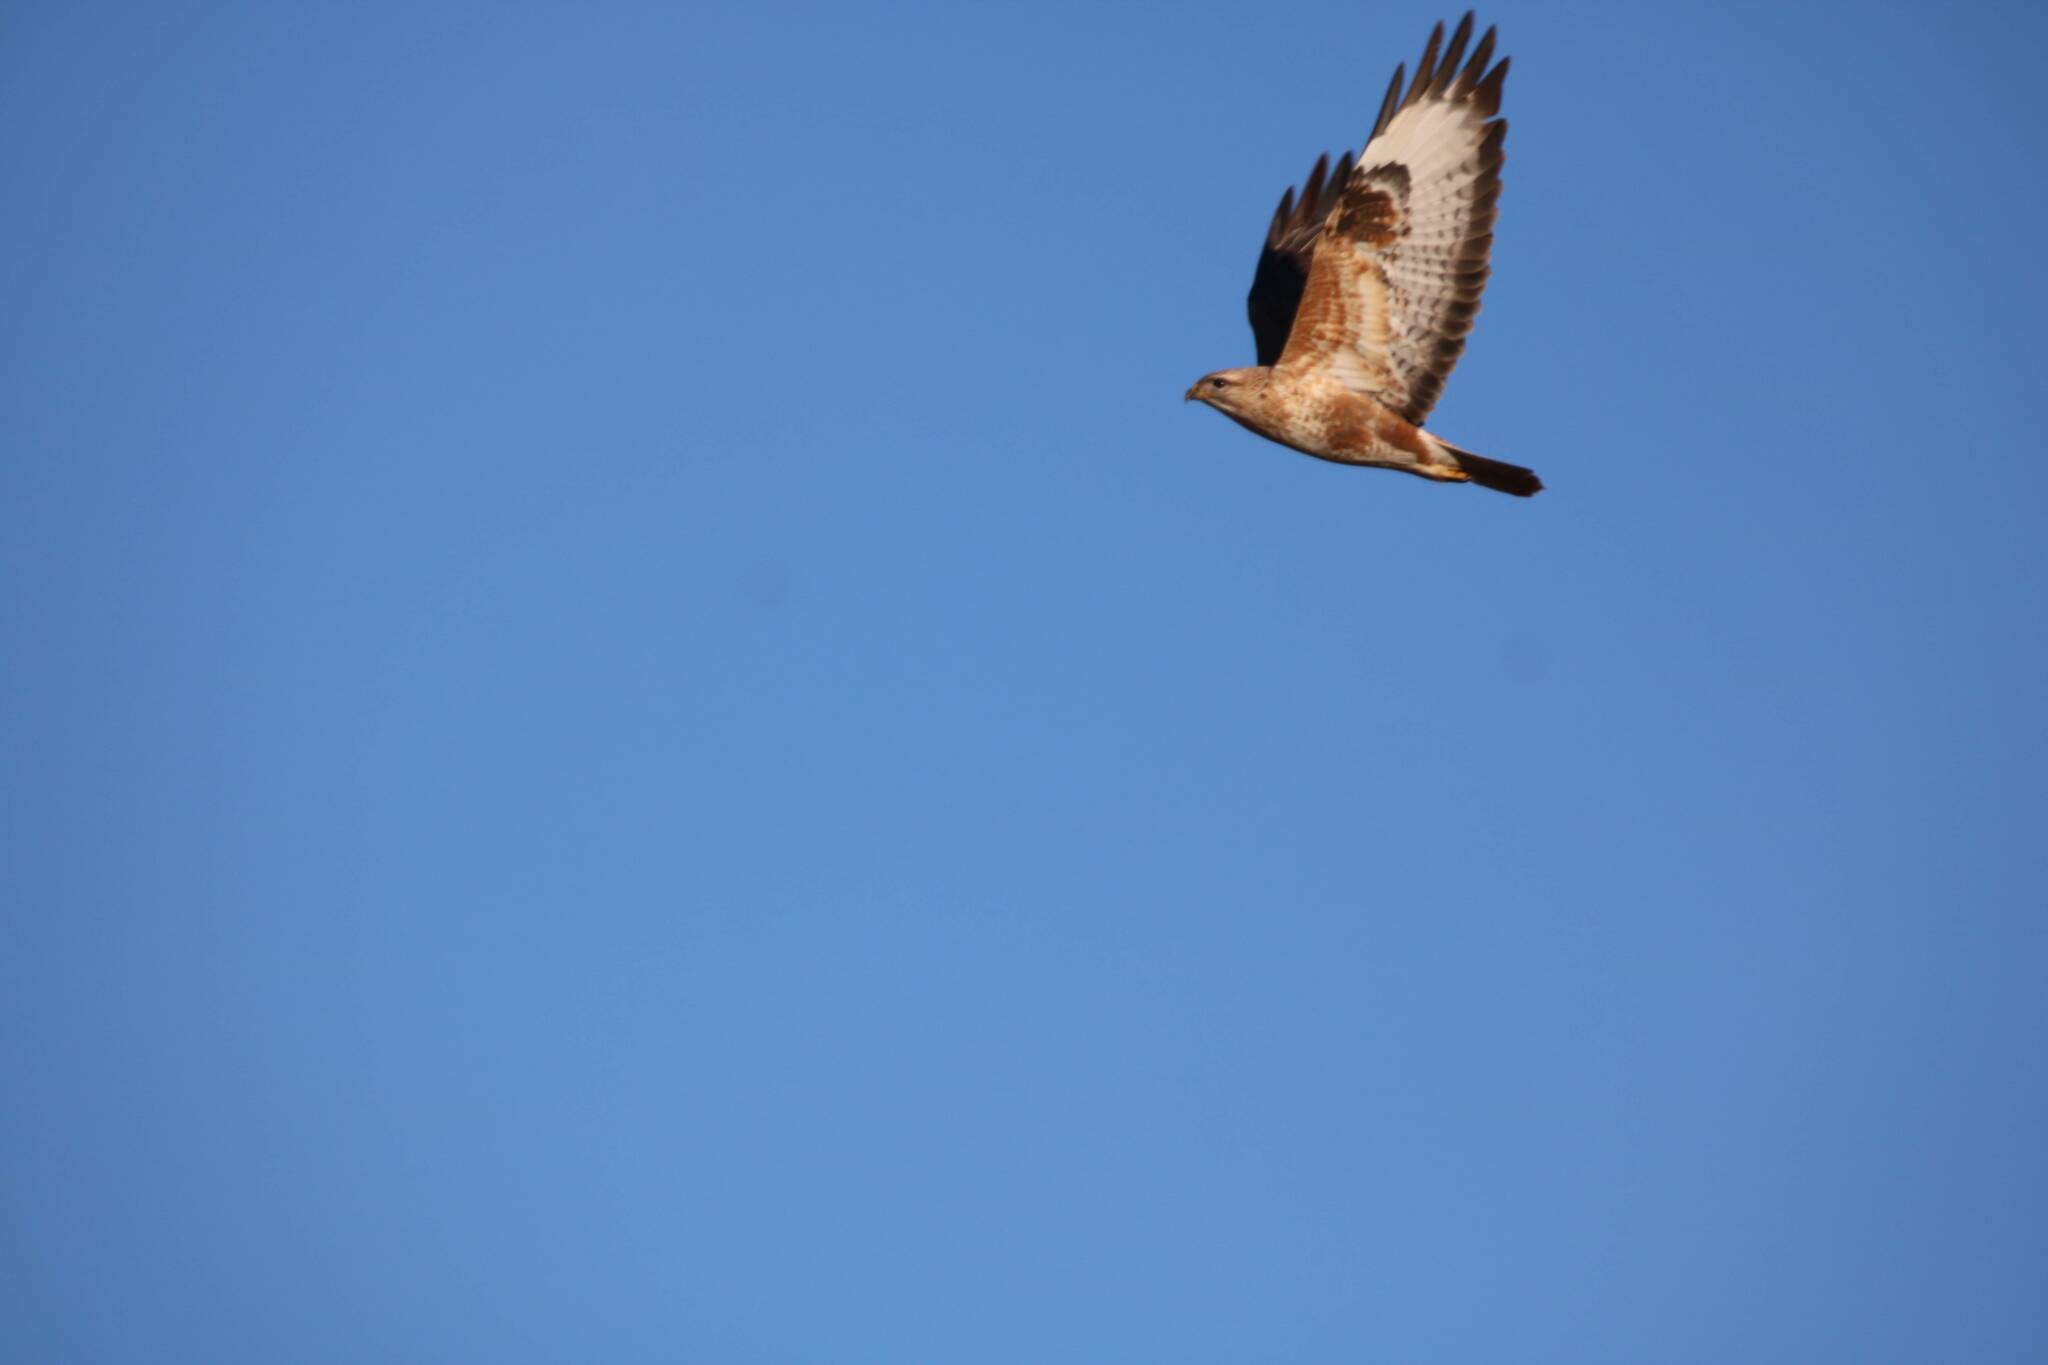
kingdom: Animalia
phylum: Chordata
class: Aves
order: Accipitriformes
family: Accipitridae
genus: Buteo
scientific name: Buteo rufinus
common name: Long-legged buzzard
